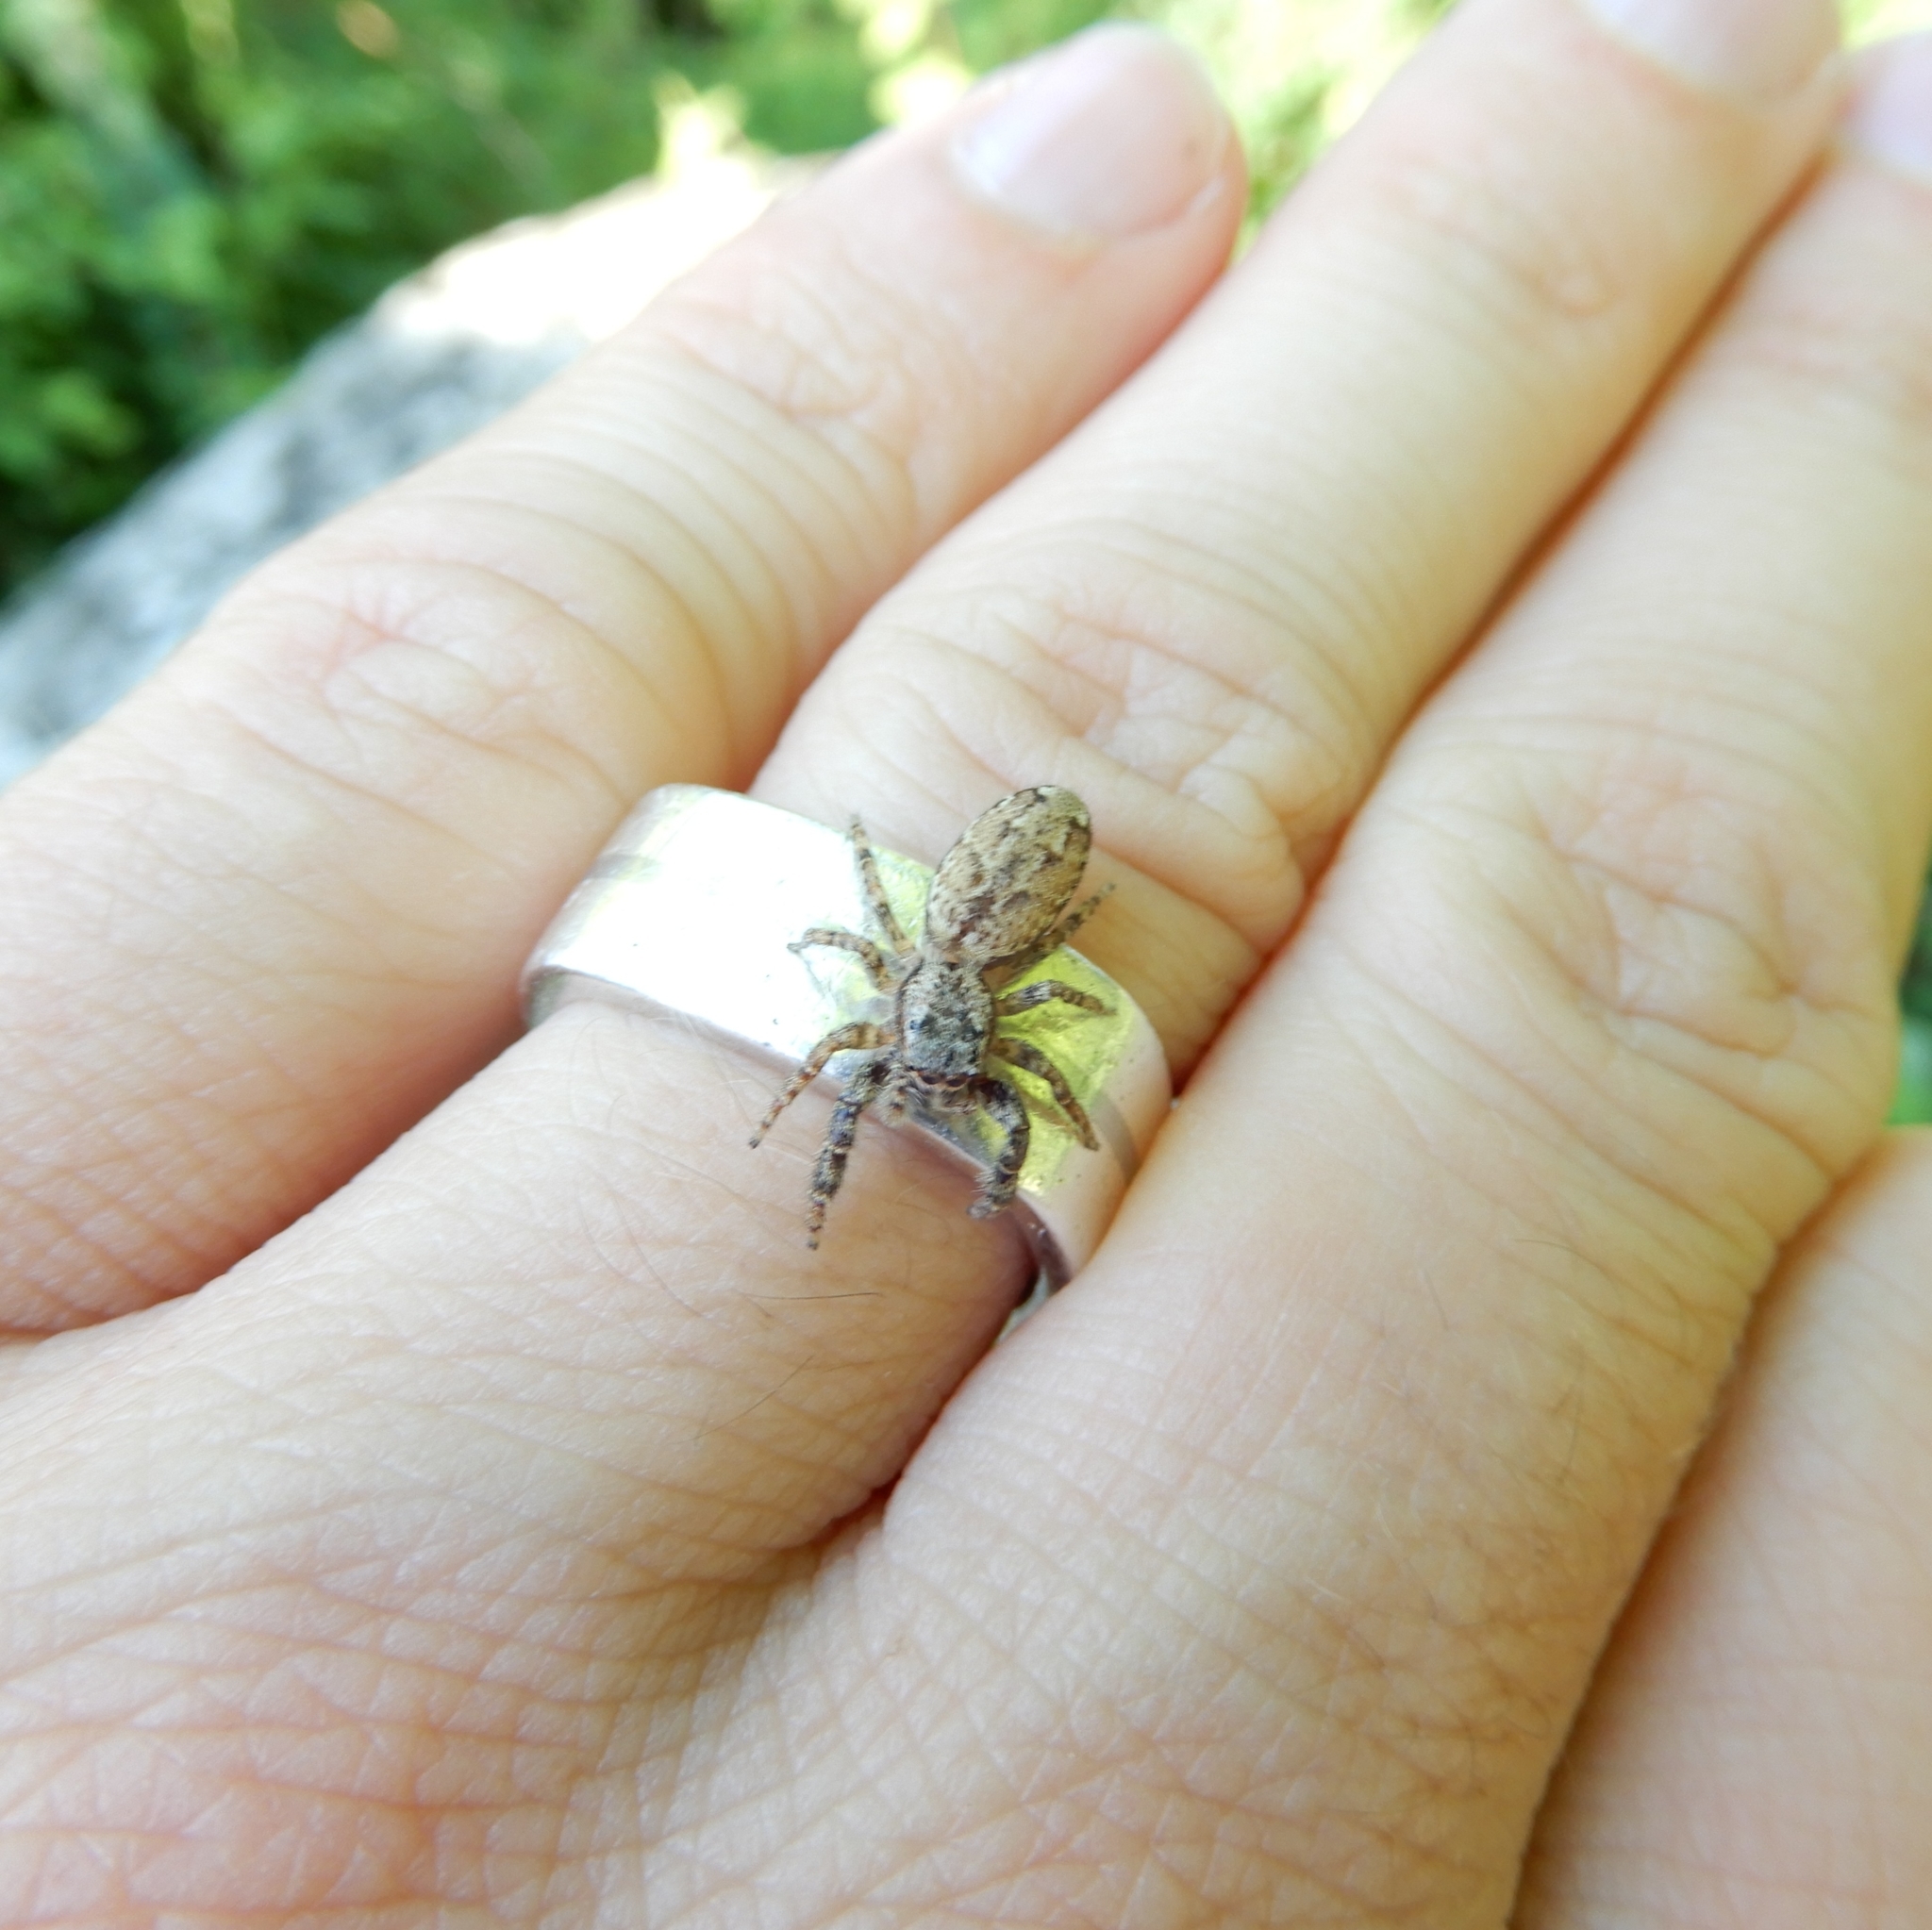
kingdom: Animalia
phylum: Arthropoda
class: Arachnida
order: Araneae
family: Salticidae
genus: Marpissa
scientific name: Marpissa muscosa
